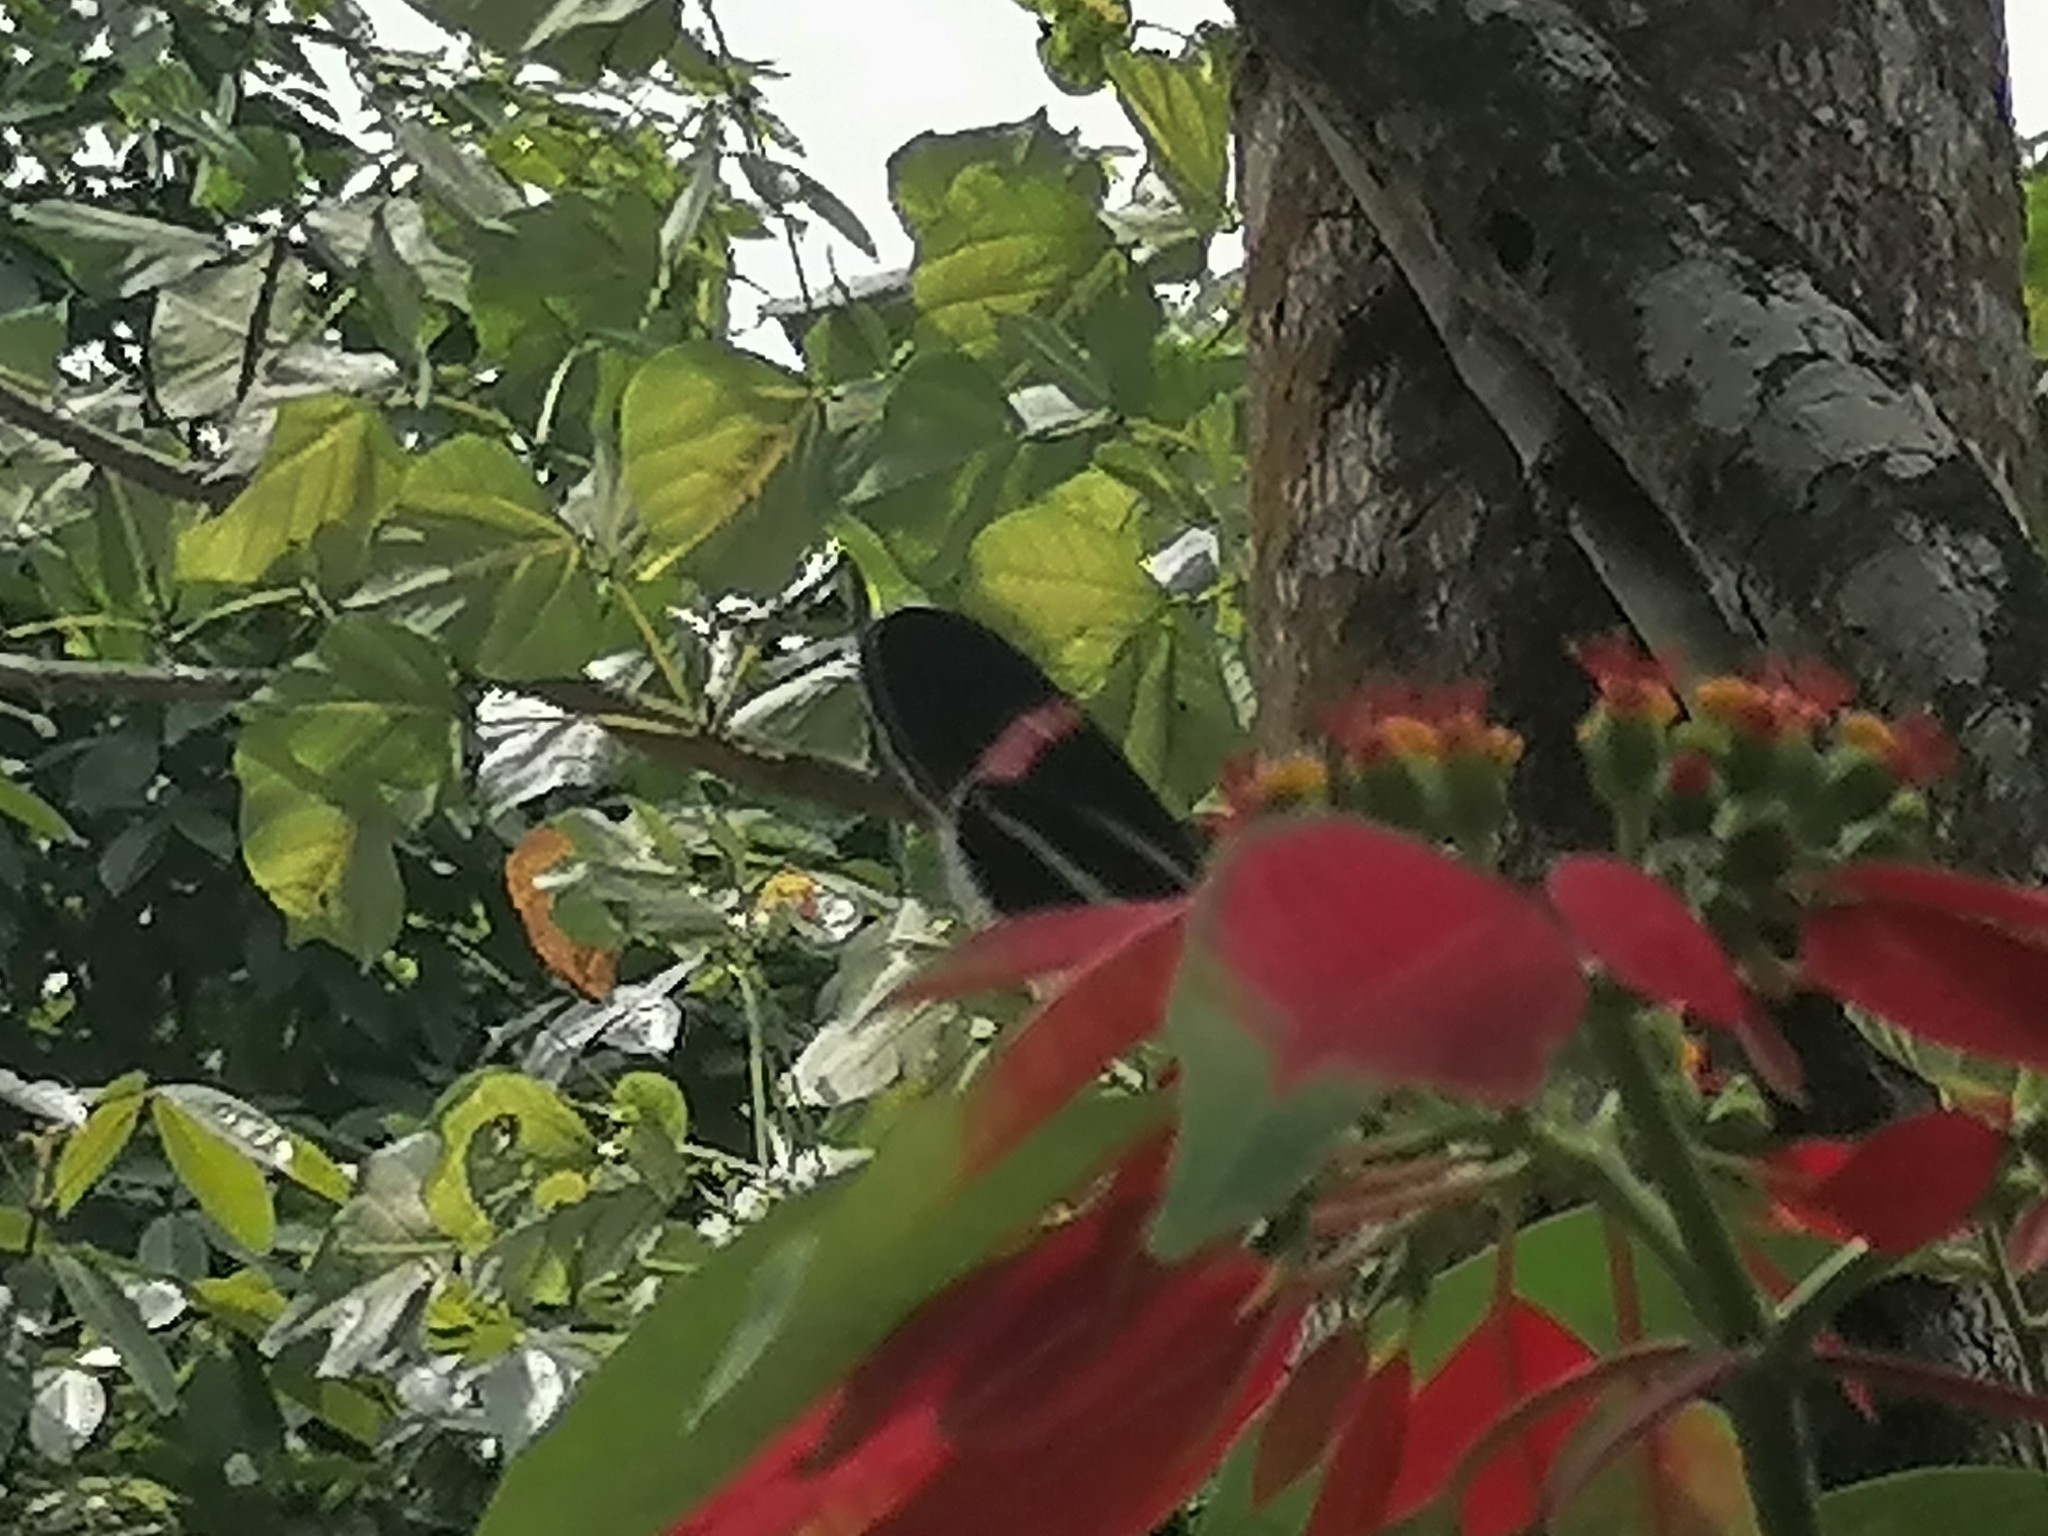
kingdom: Animalia
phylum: Arthropoda
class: Insecta
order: Lepidoptera
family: Nymphalidae
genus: Heliconius
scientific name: Heliconius erato
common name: Common patch longwing
